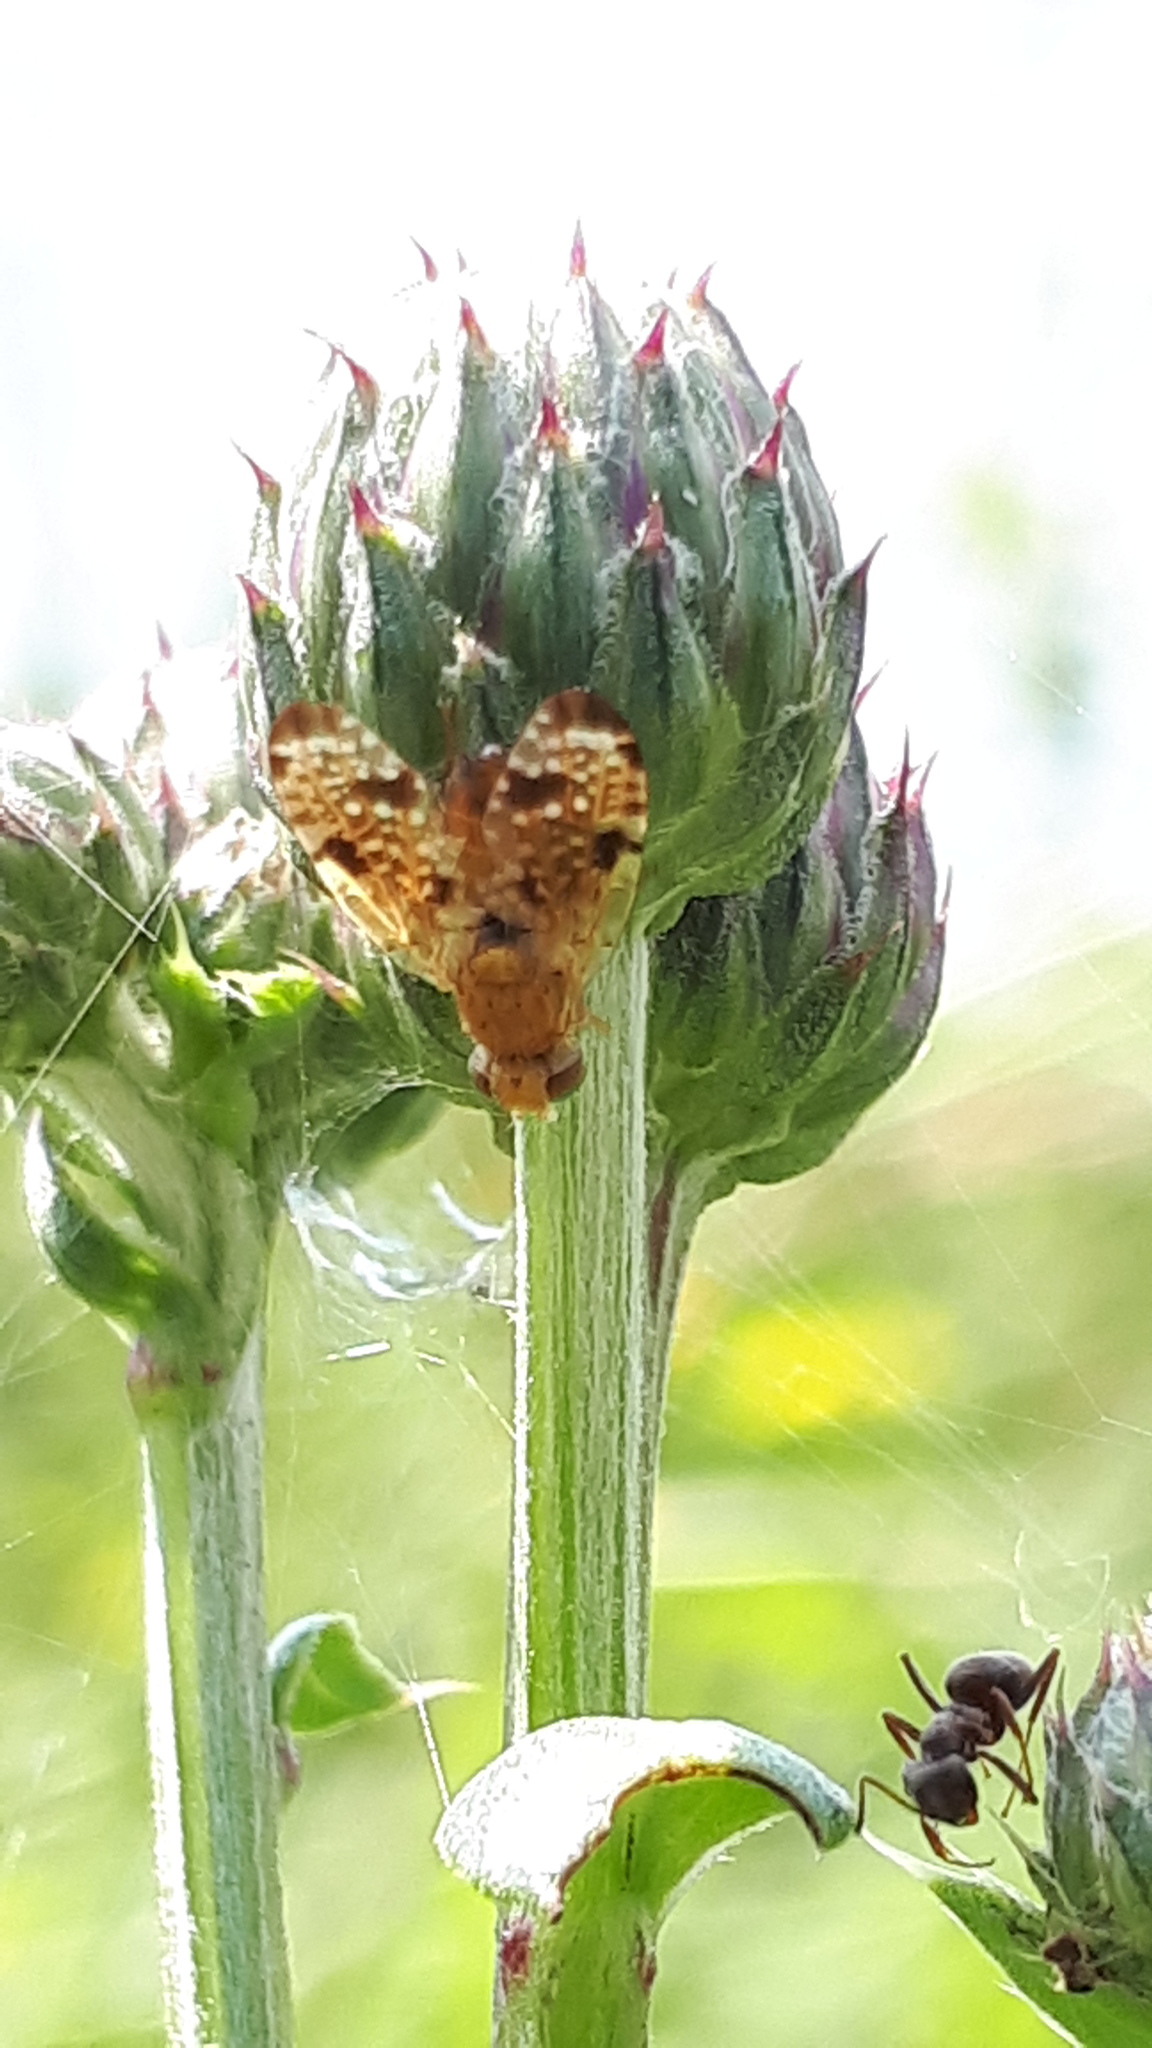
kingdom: Animalia
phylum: Arthropoda
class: Insecta
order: Diptera
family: Tephritidae
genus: Xyphosia
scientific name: Xyphosia miliaria
